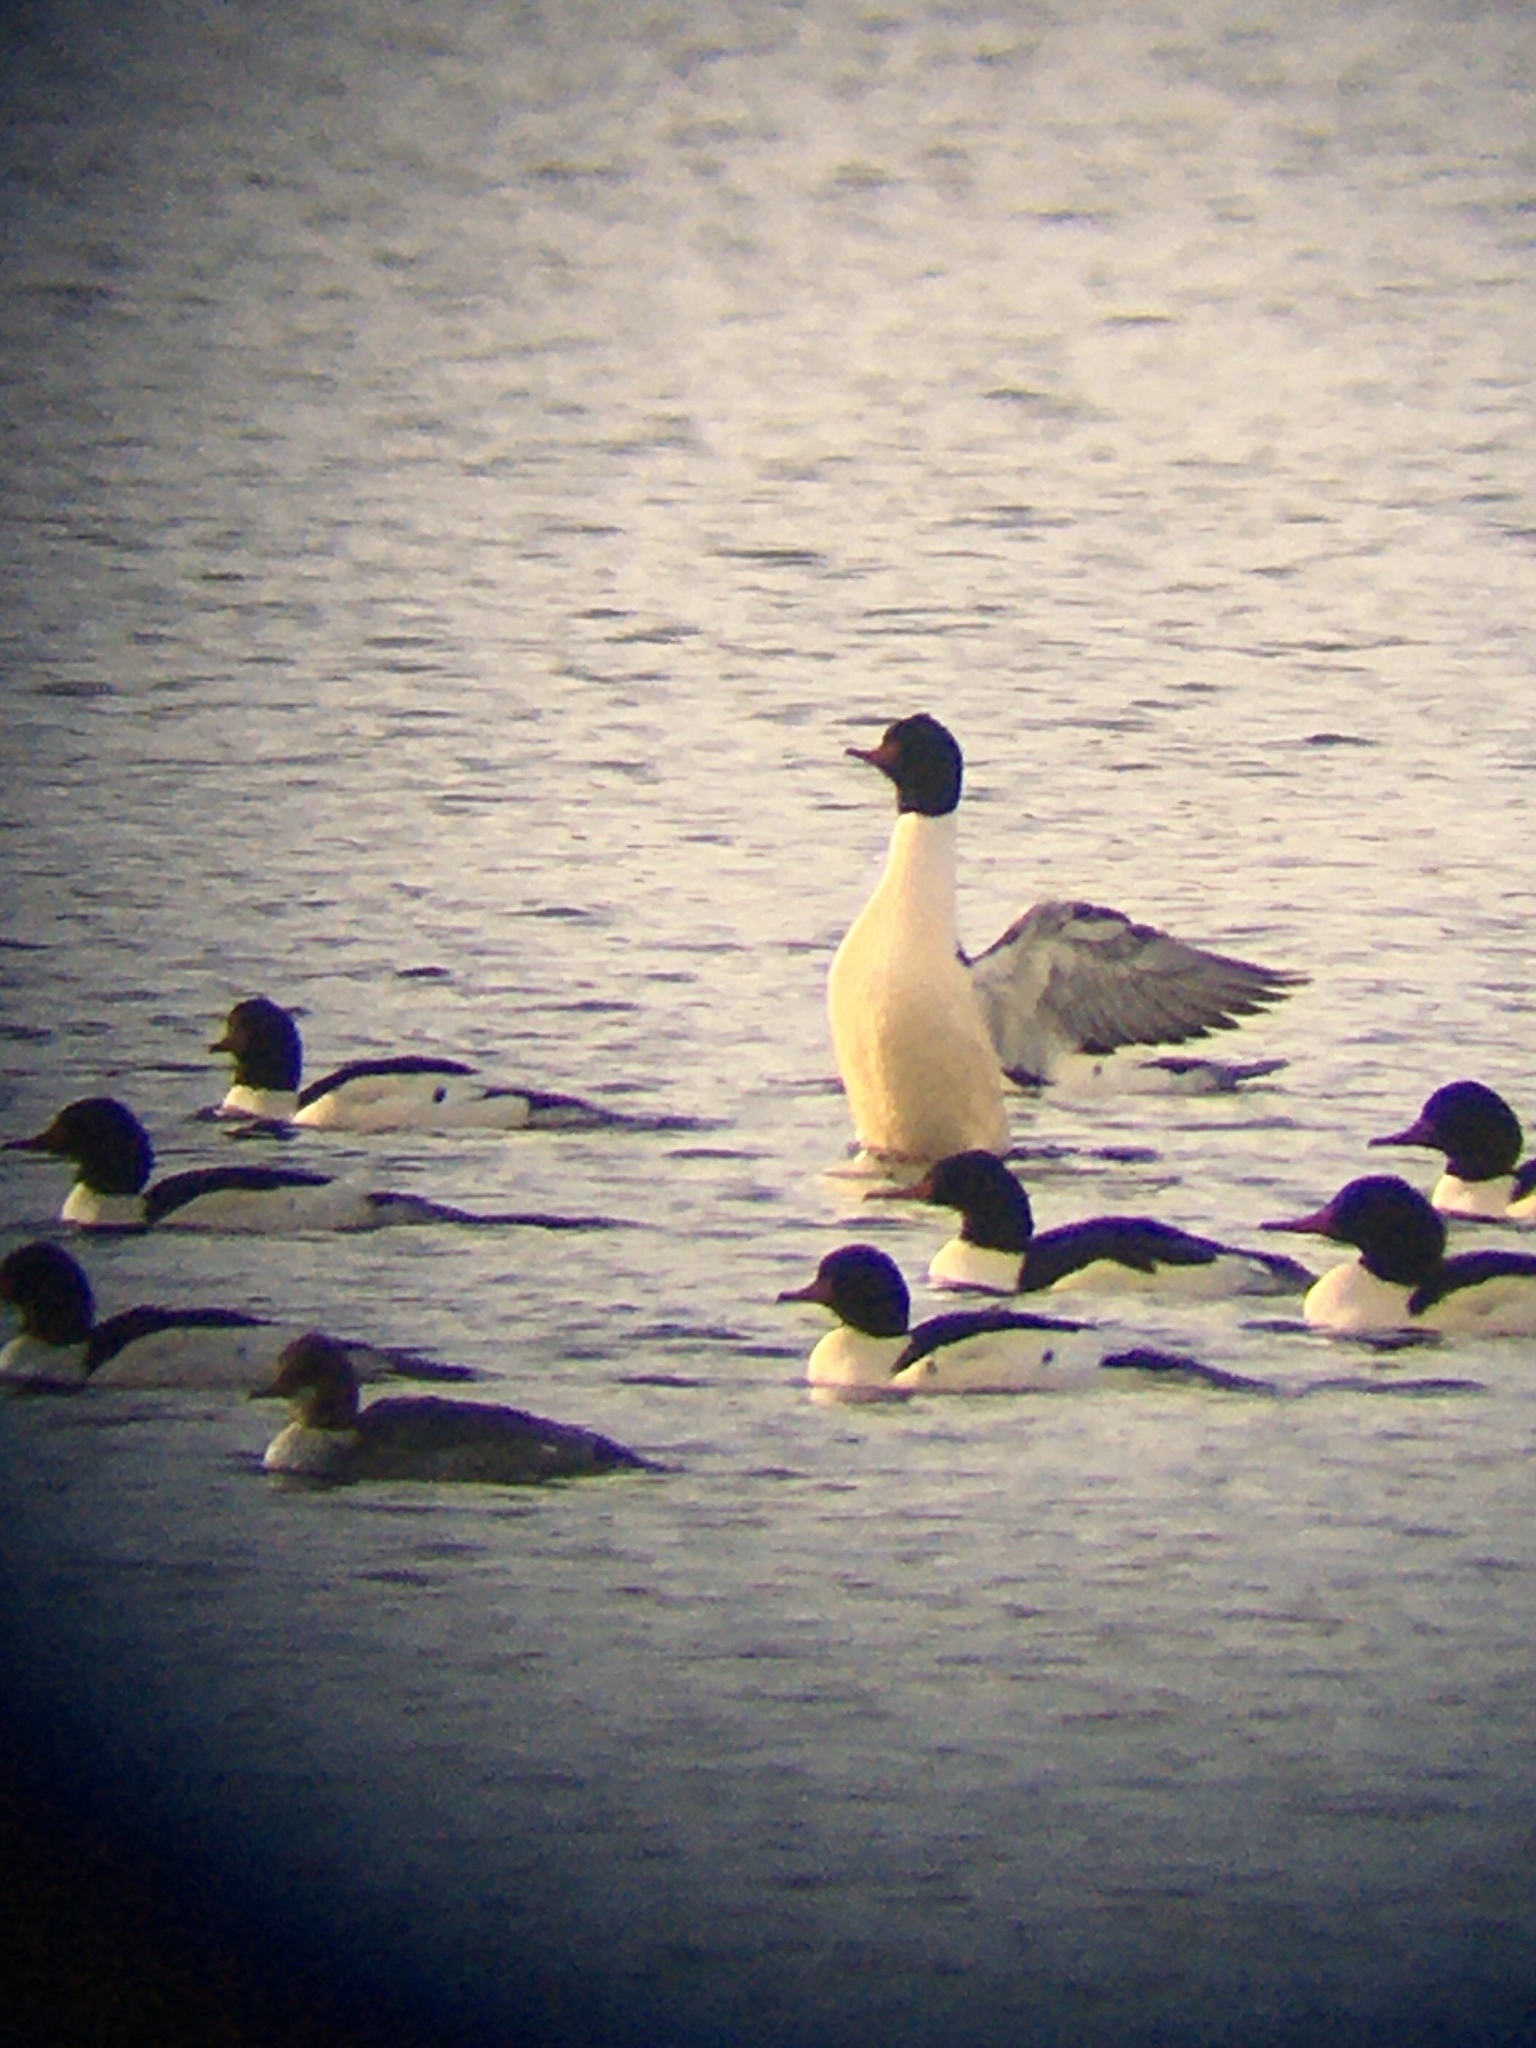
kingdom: Animalia
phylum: Chordata
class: Aves
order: Anseriformes
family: Anatidae
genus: Mergus
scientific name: Mergus merganser
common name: Common merganser
